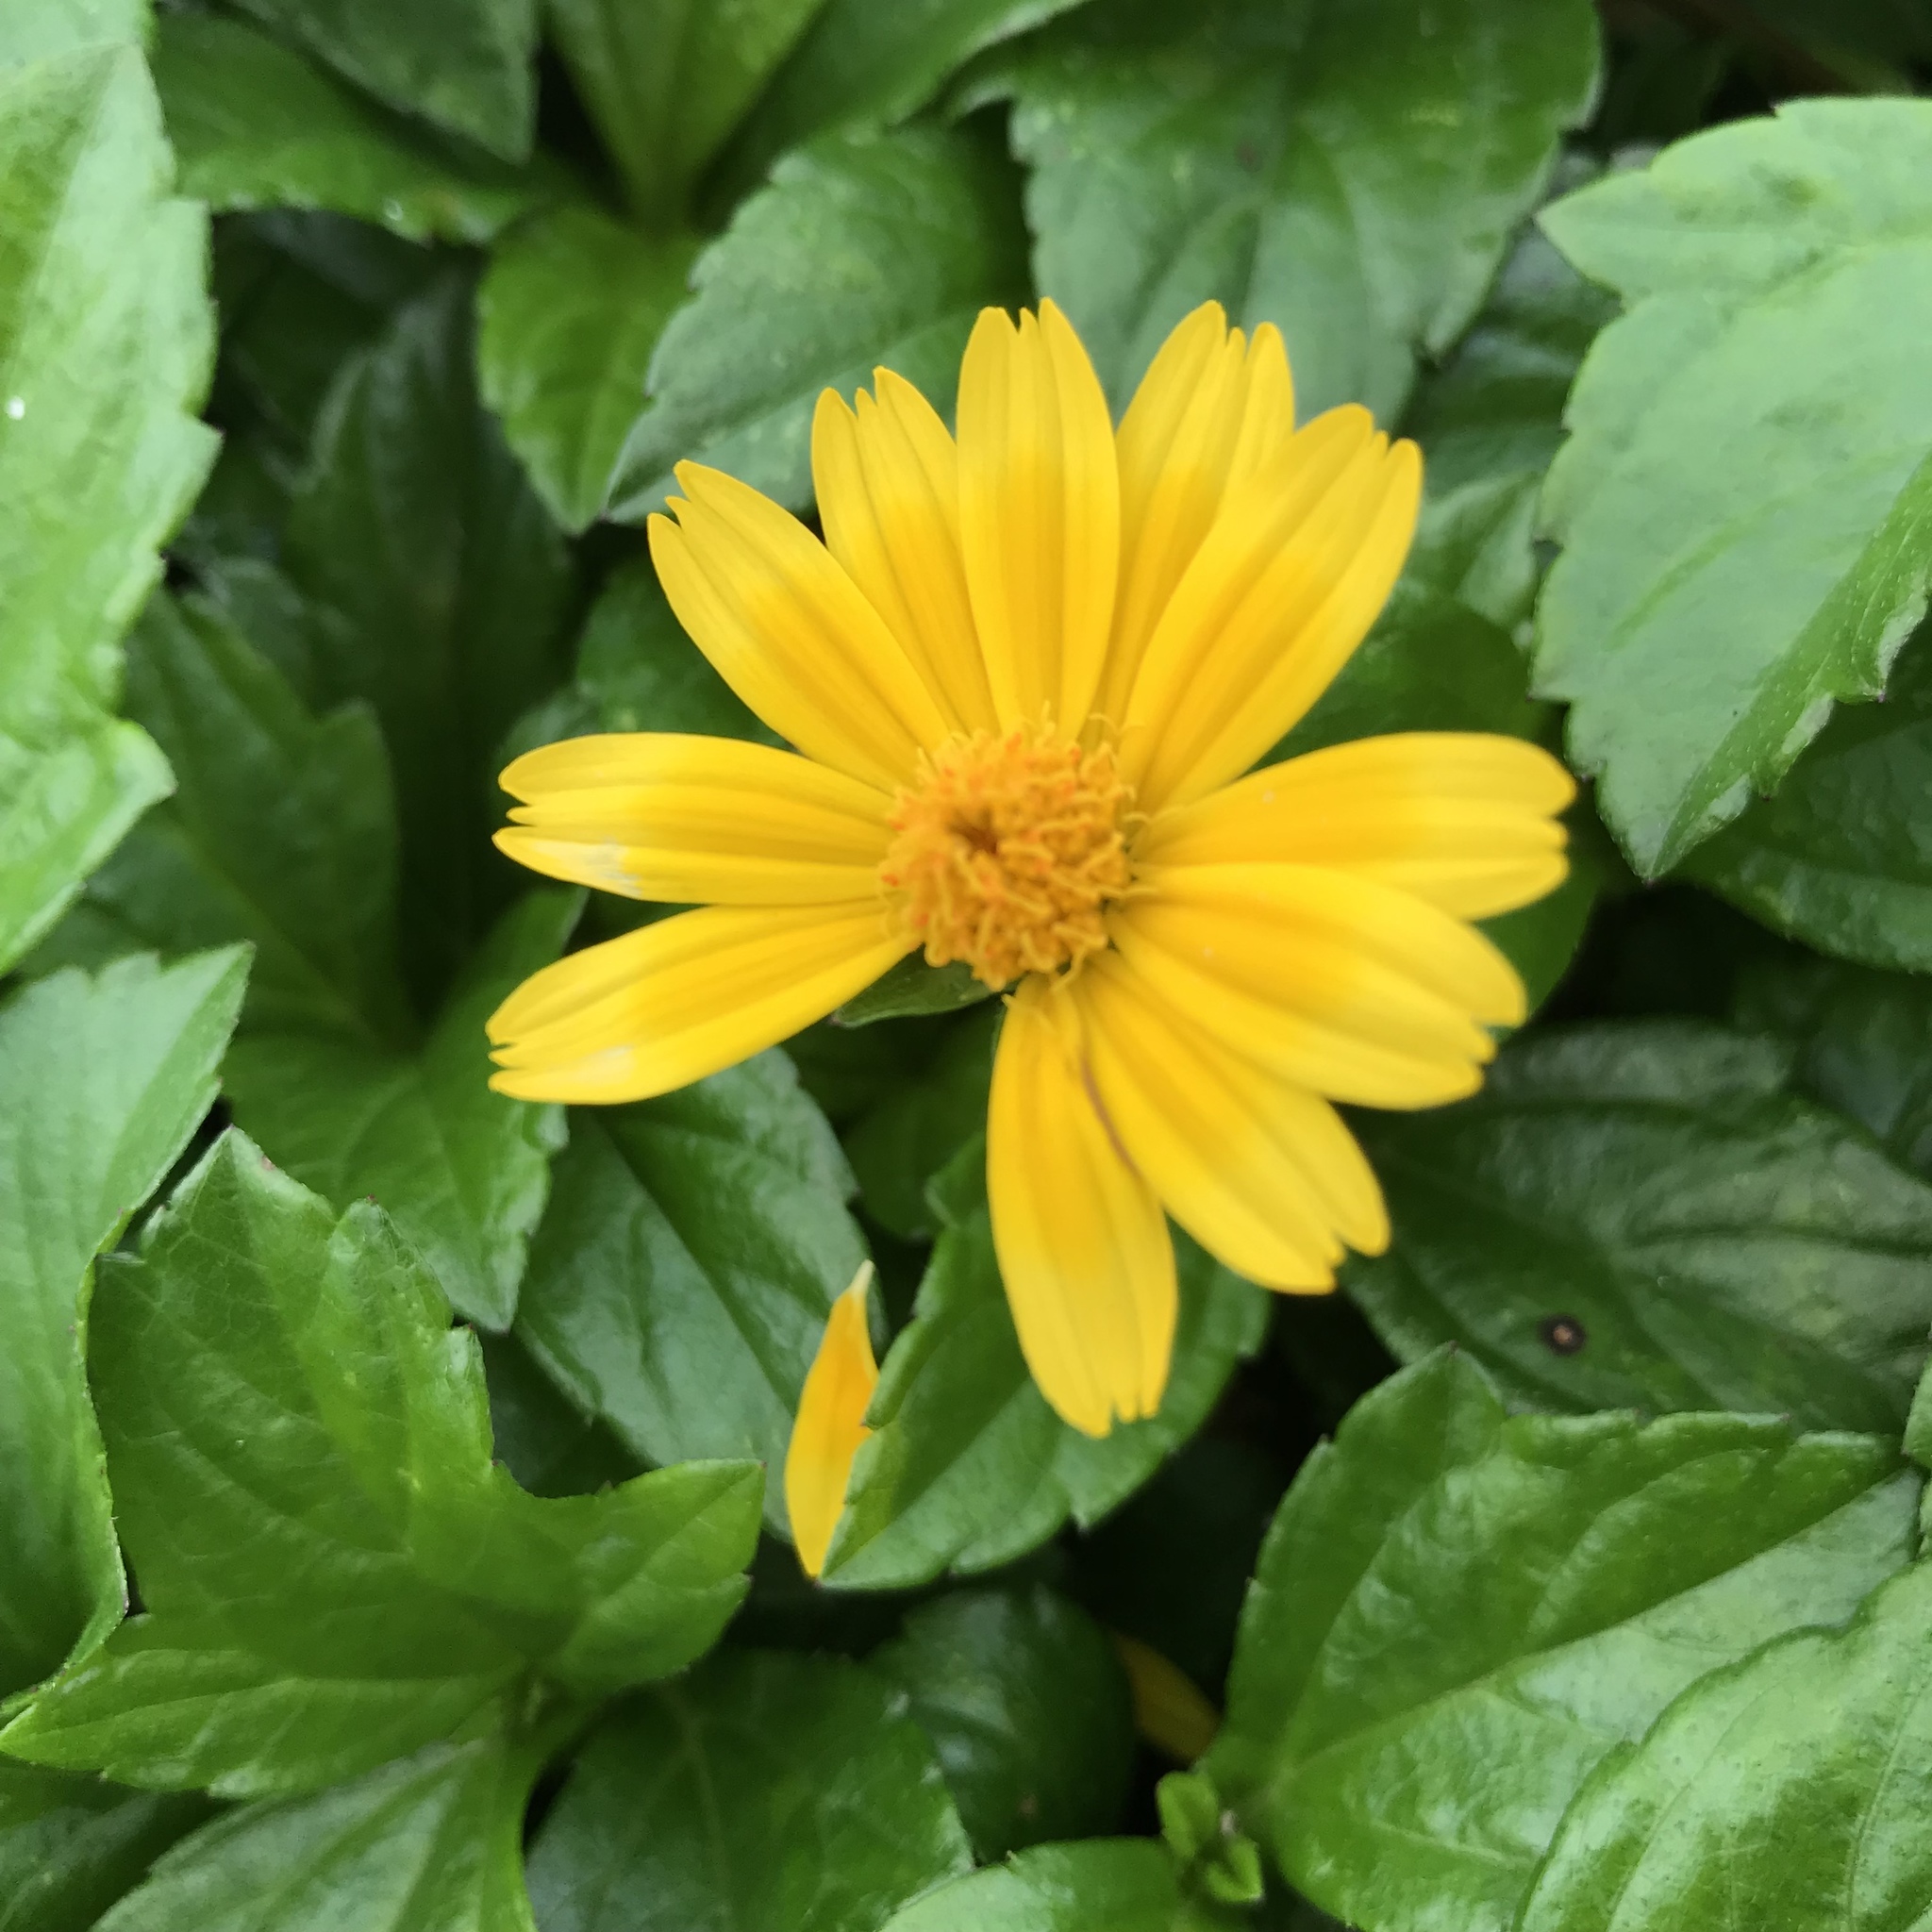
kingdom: Plantae
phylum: Tracheophyta
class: Magnoliopsida
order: Asterales
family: Asteraceae
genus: Sphagneticola
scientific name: Sphagneticola trilobata
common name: Bay biscayne creeping-oxeye
